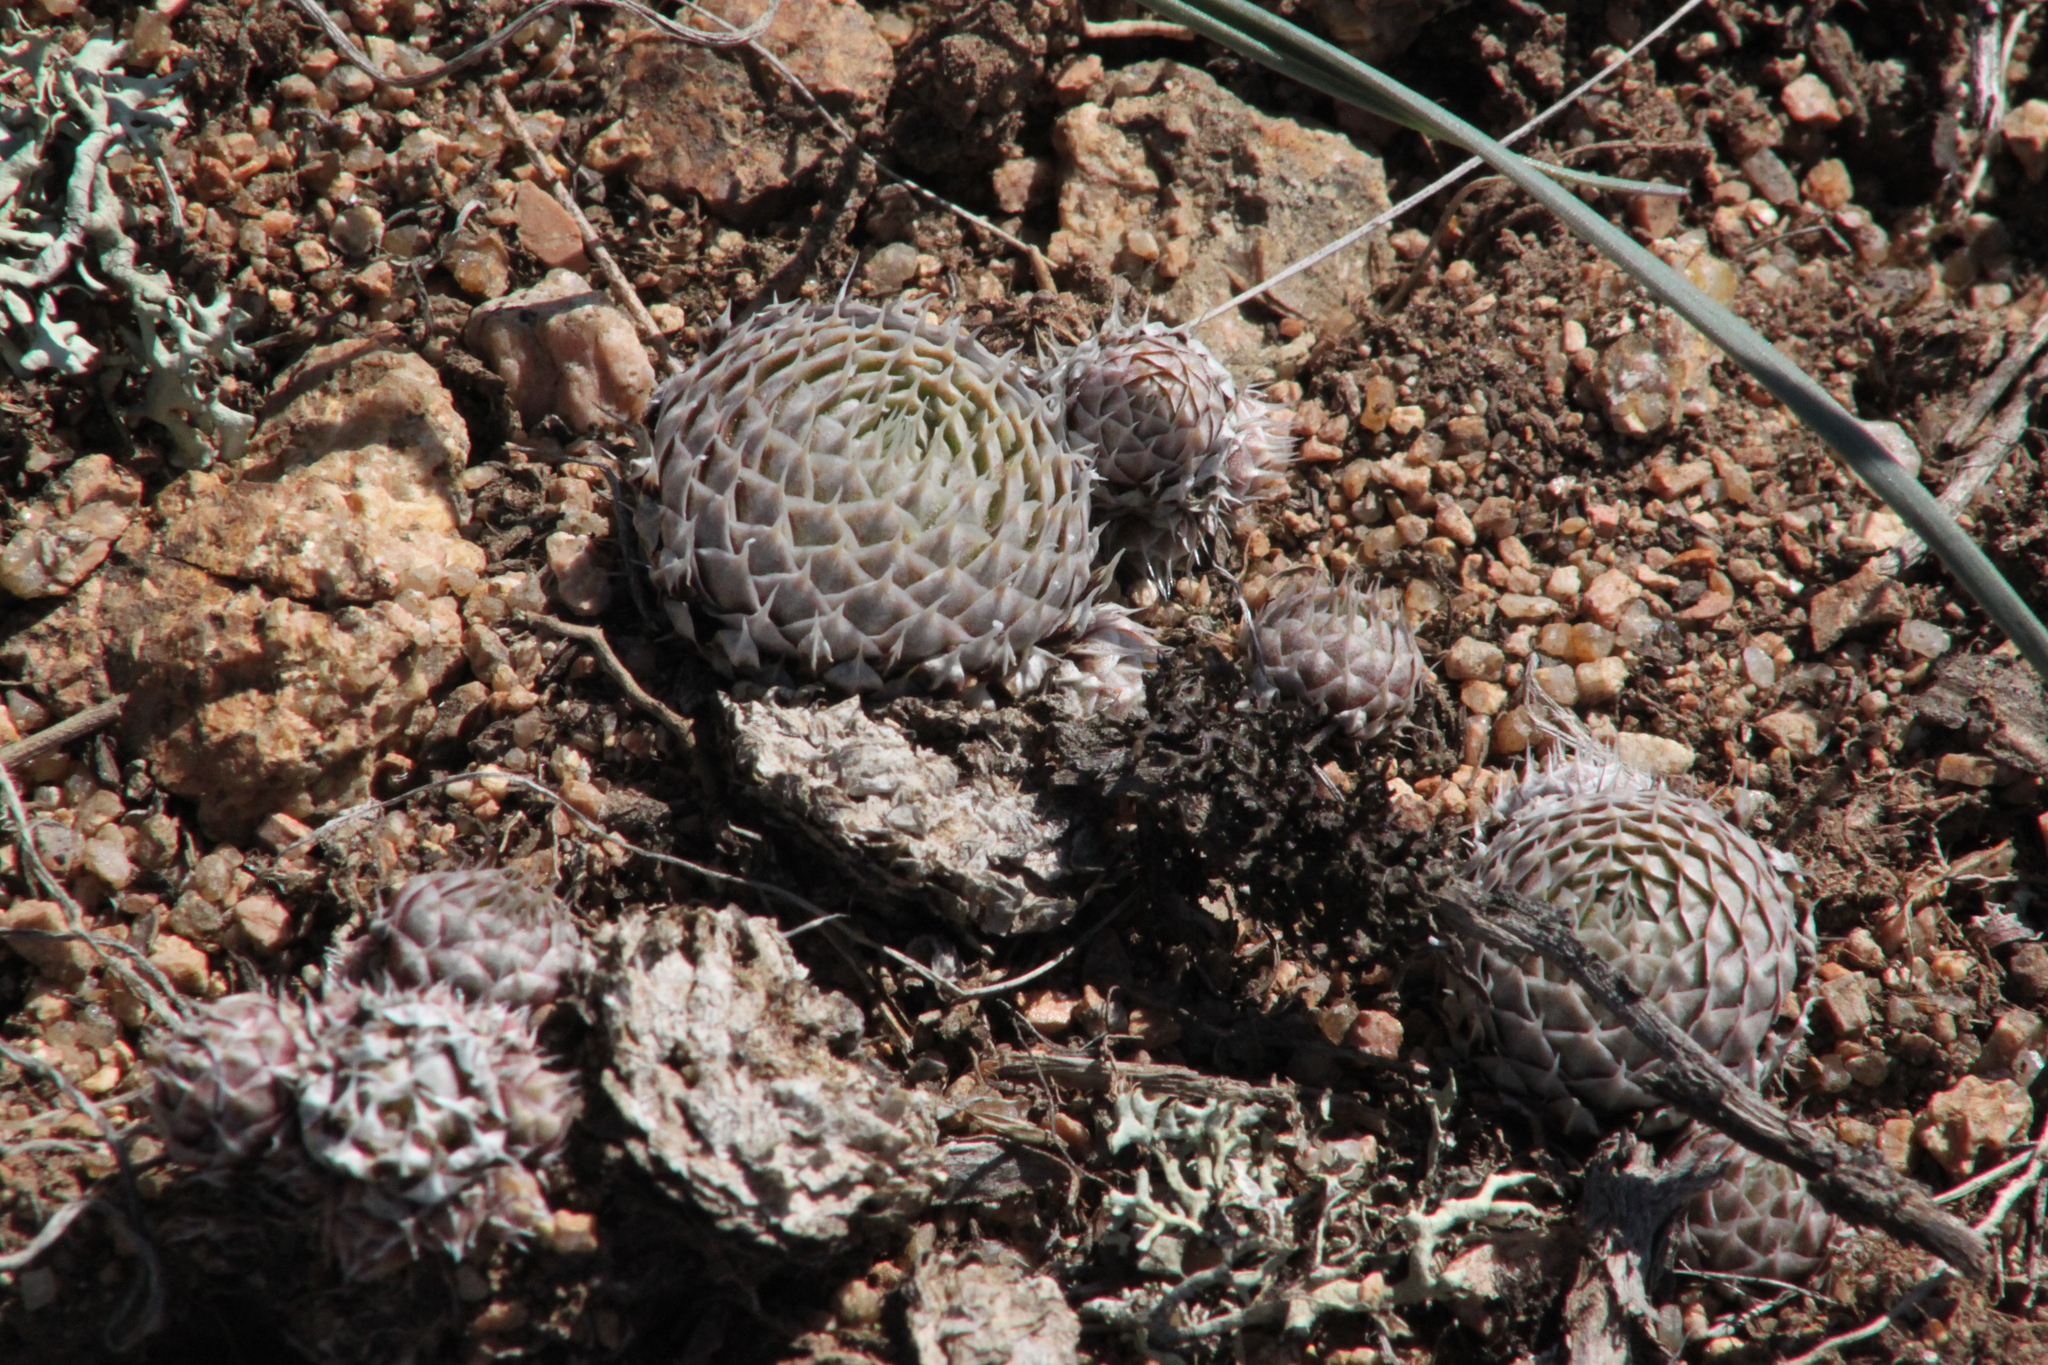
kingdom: Plantae
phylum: Tracheophyta
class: Magnoliopsida
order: Saxifragales
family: Crassulaceae
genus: Orostachys
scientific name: Orostachys spinosa
